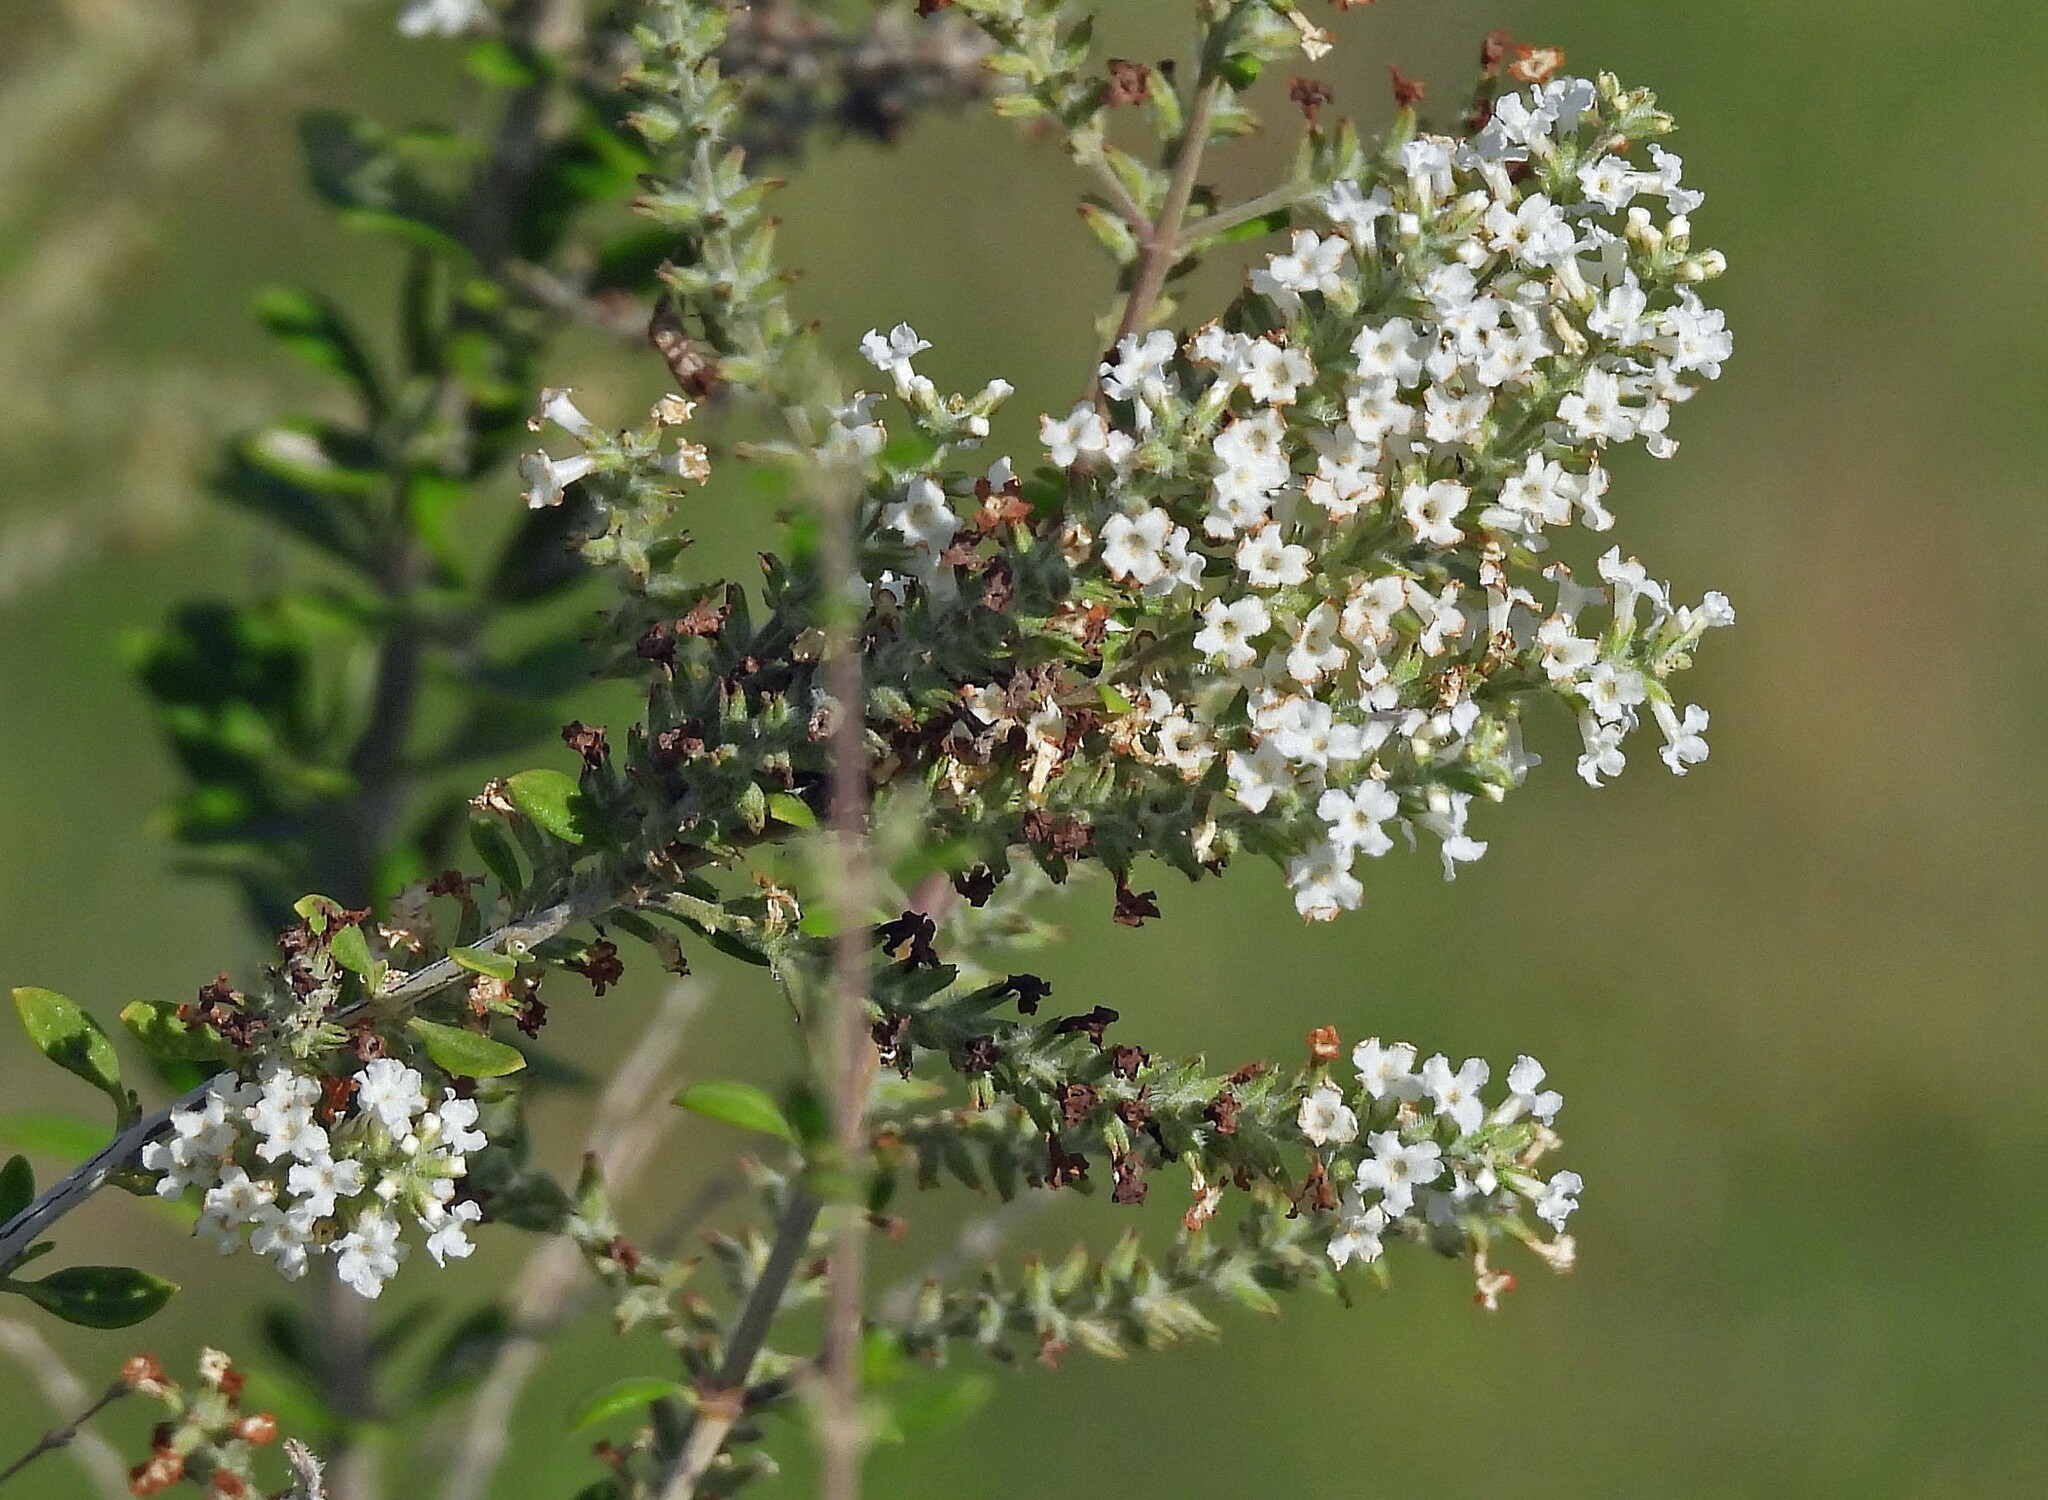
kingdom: Plantae
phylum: Tracheophyta
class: Magnoliopsida
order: Lamiales
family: Verbenaceae
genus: Aloysia
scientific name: Aloysia gratissima
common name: Common bee-brush
